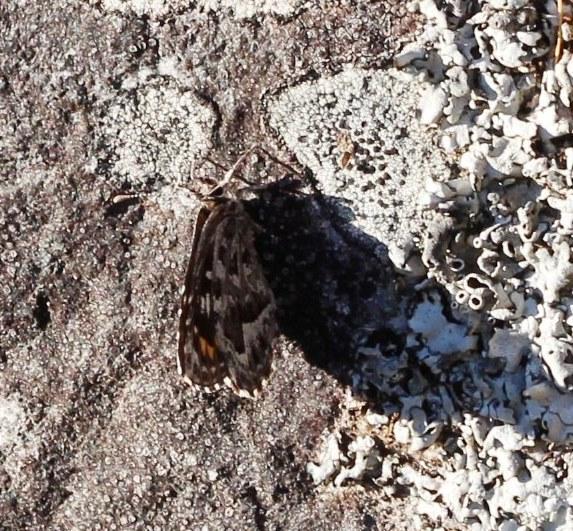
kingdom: Animalia
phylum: Arthropoda
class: Insecta
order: Lepidoptera
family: Lycaenidae
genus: Durbaniopsis
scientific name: Durbaniopsis saga
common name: Boland rocksitter
